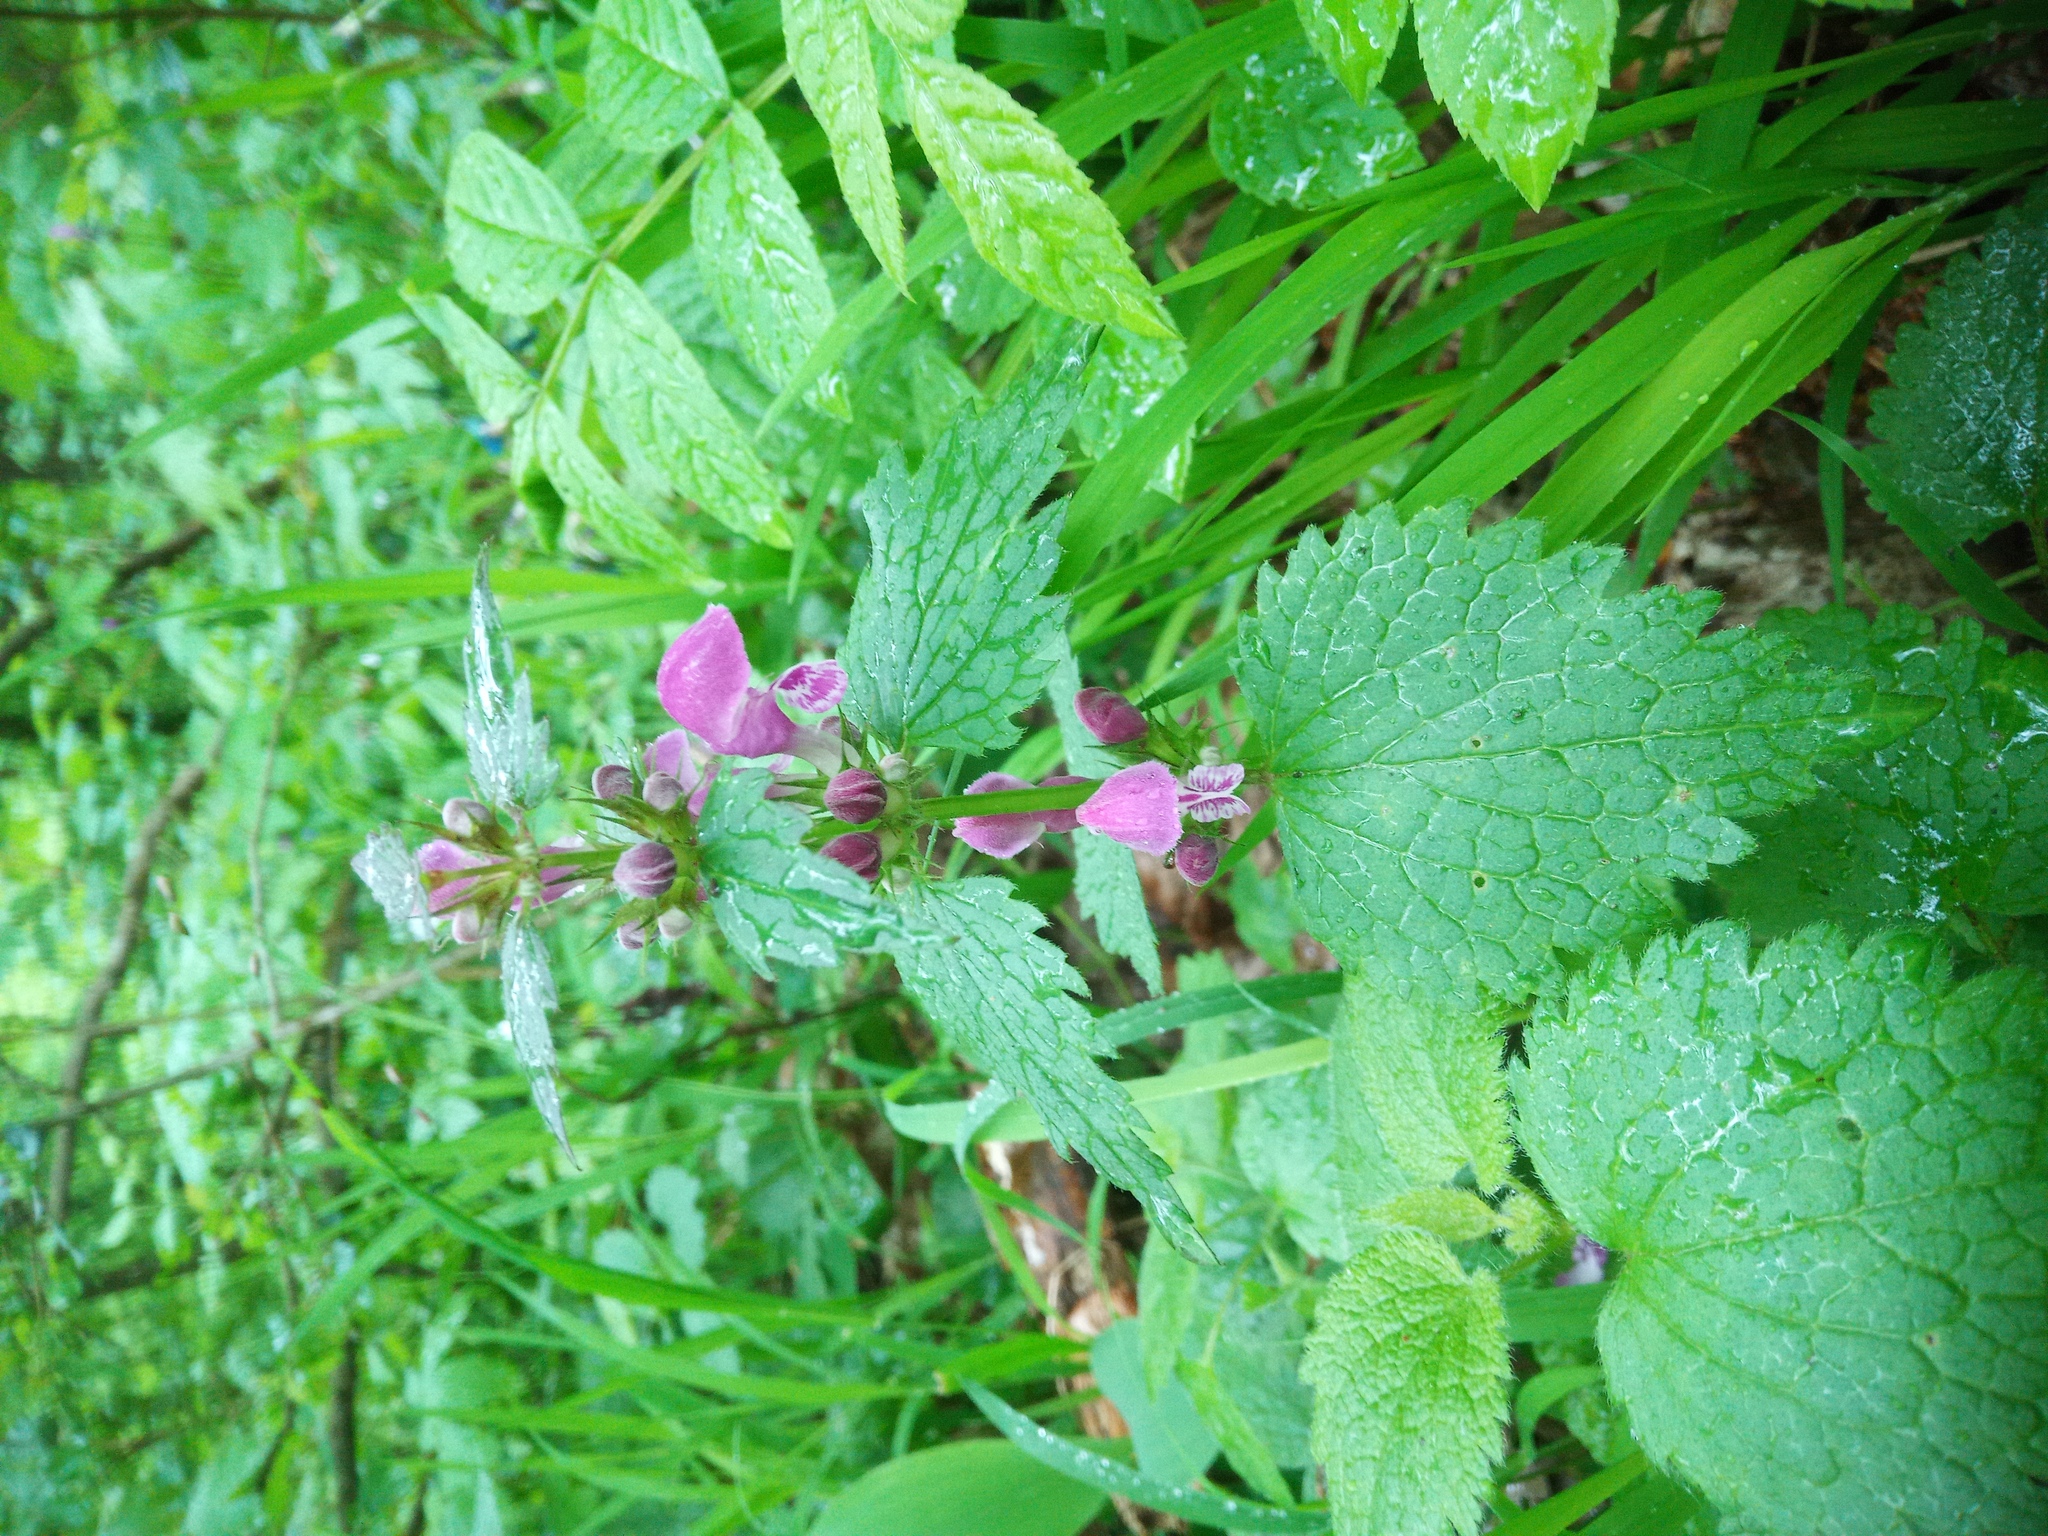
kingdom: Plantae
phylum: Tracheophyta
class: Magnoliopsida
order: Lamiales
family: Lamiaceae
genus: Lamium
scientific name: Lamium maculatum
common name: Spotted dead-nettle
